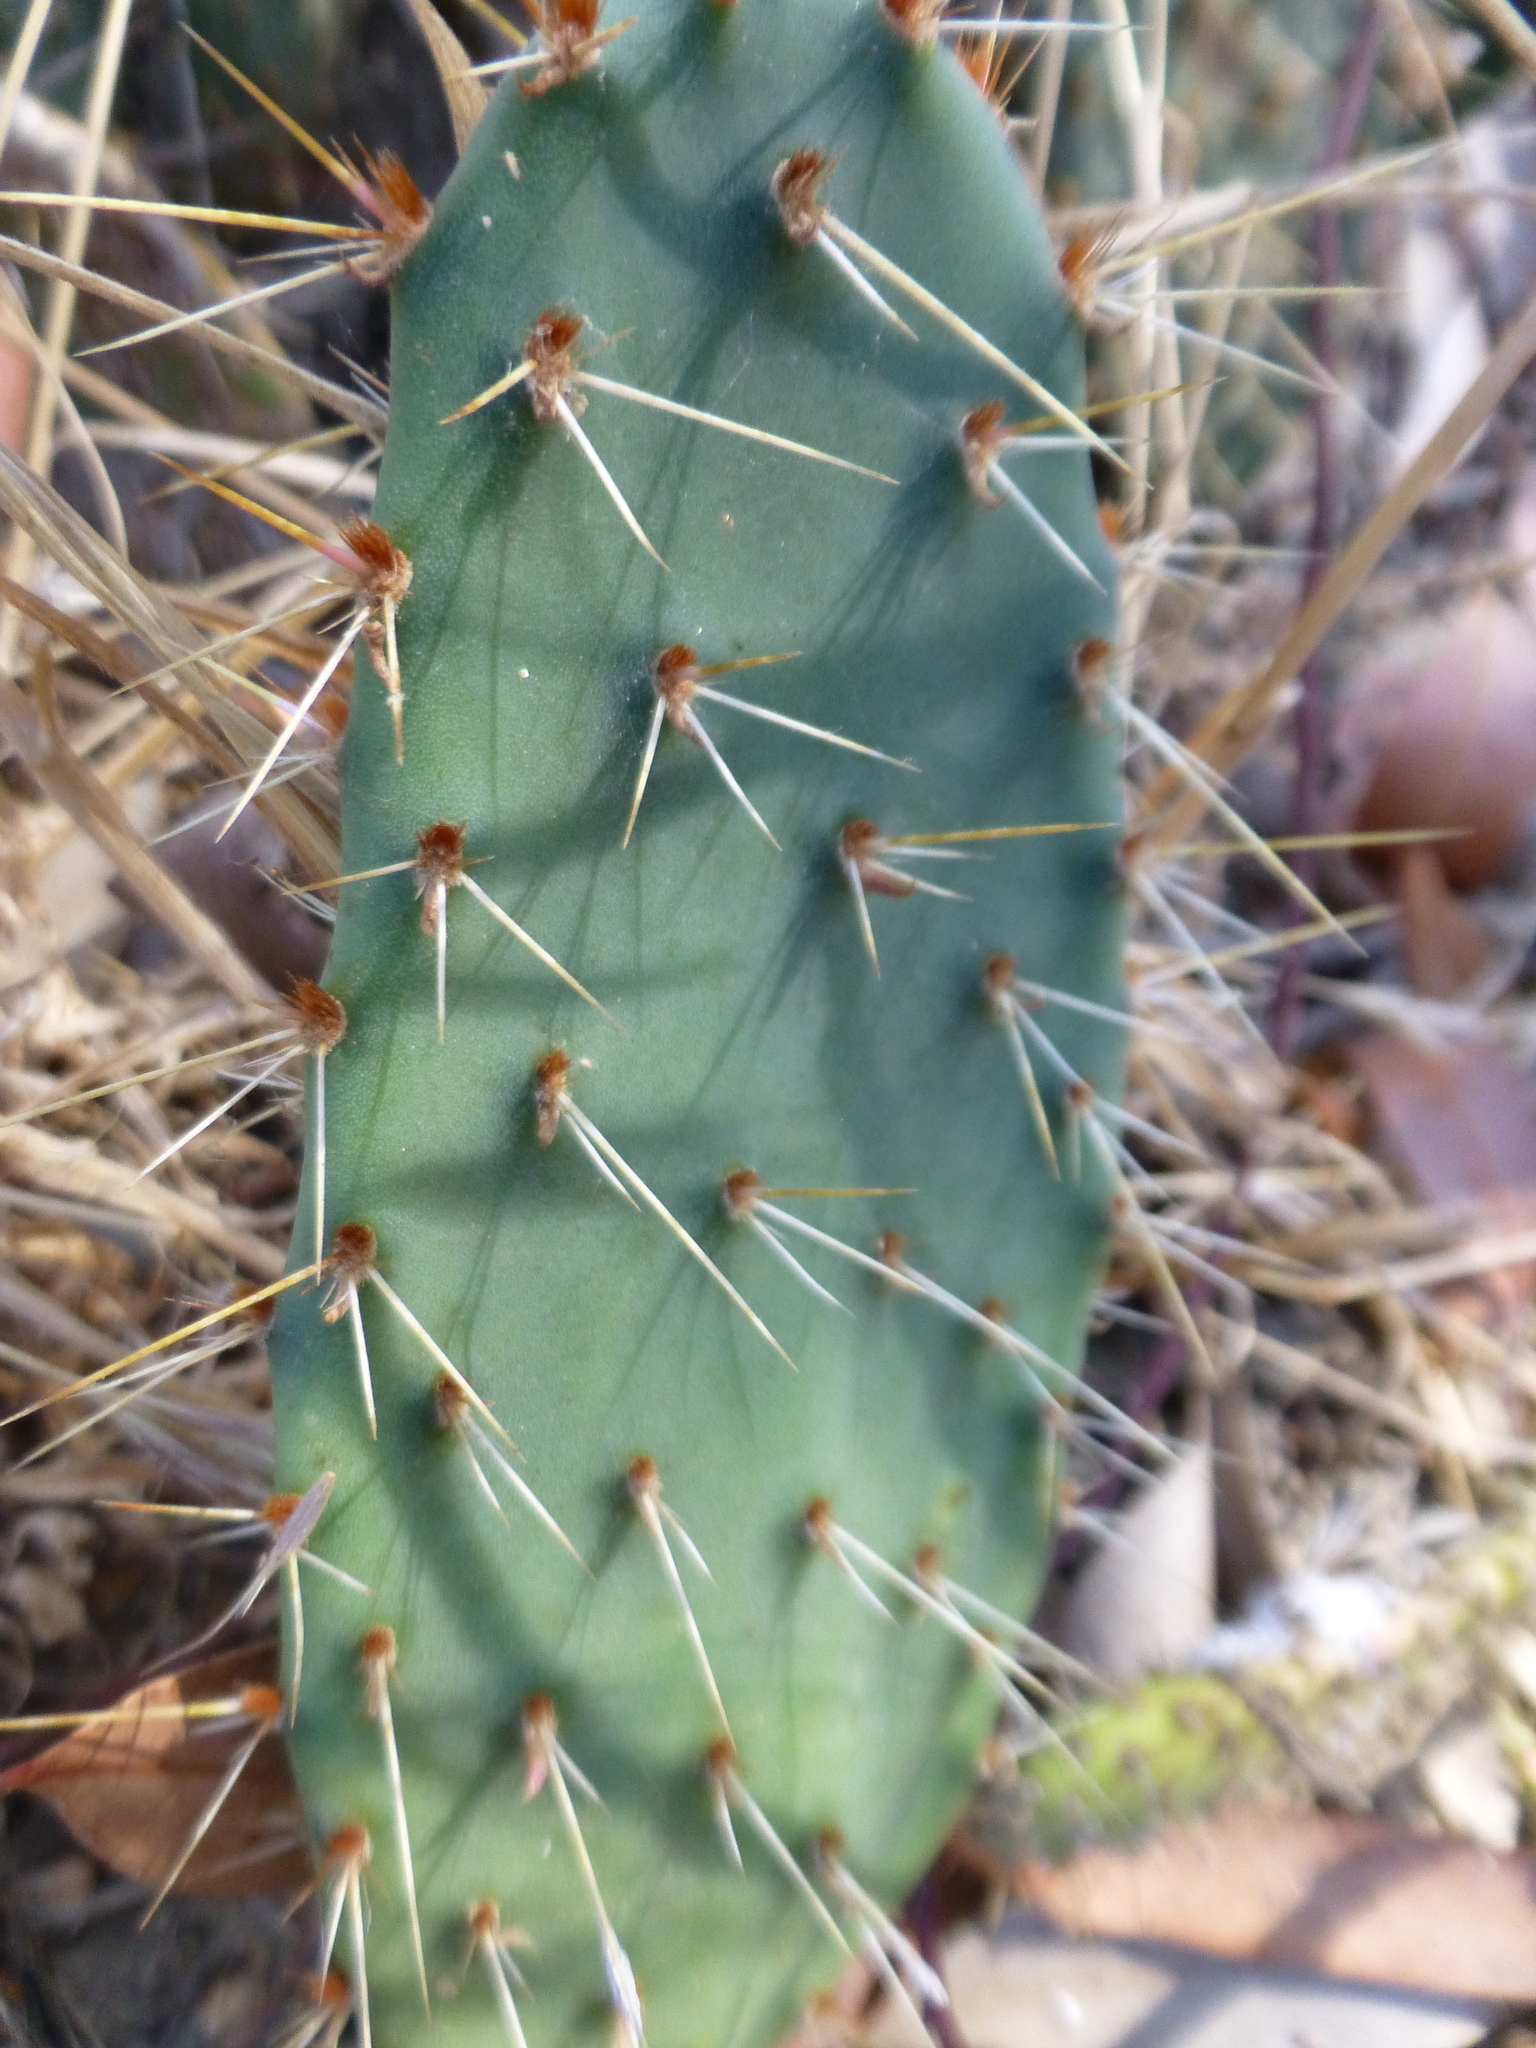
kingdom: Plantae
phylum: Tracheophyta
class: Magnoliopsida
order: Caryophyllales
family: Cactaceae
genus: Opuntia
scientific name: Opuntia littoralis
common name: Coastal prickly-pear
